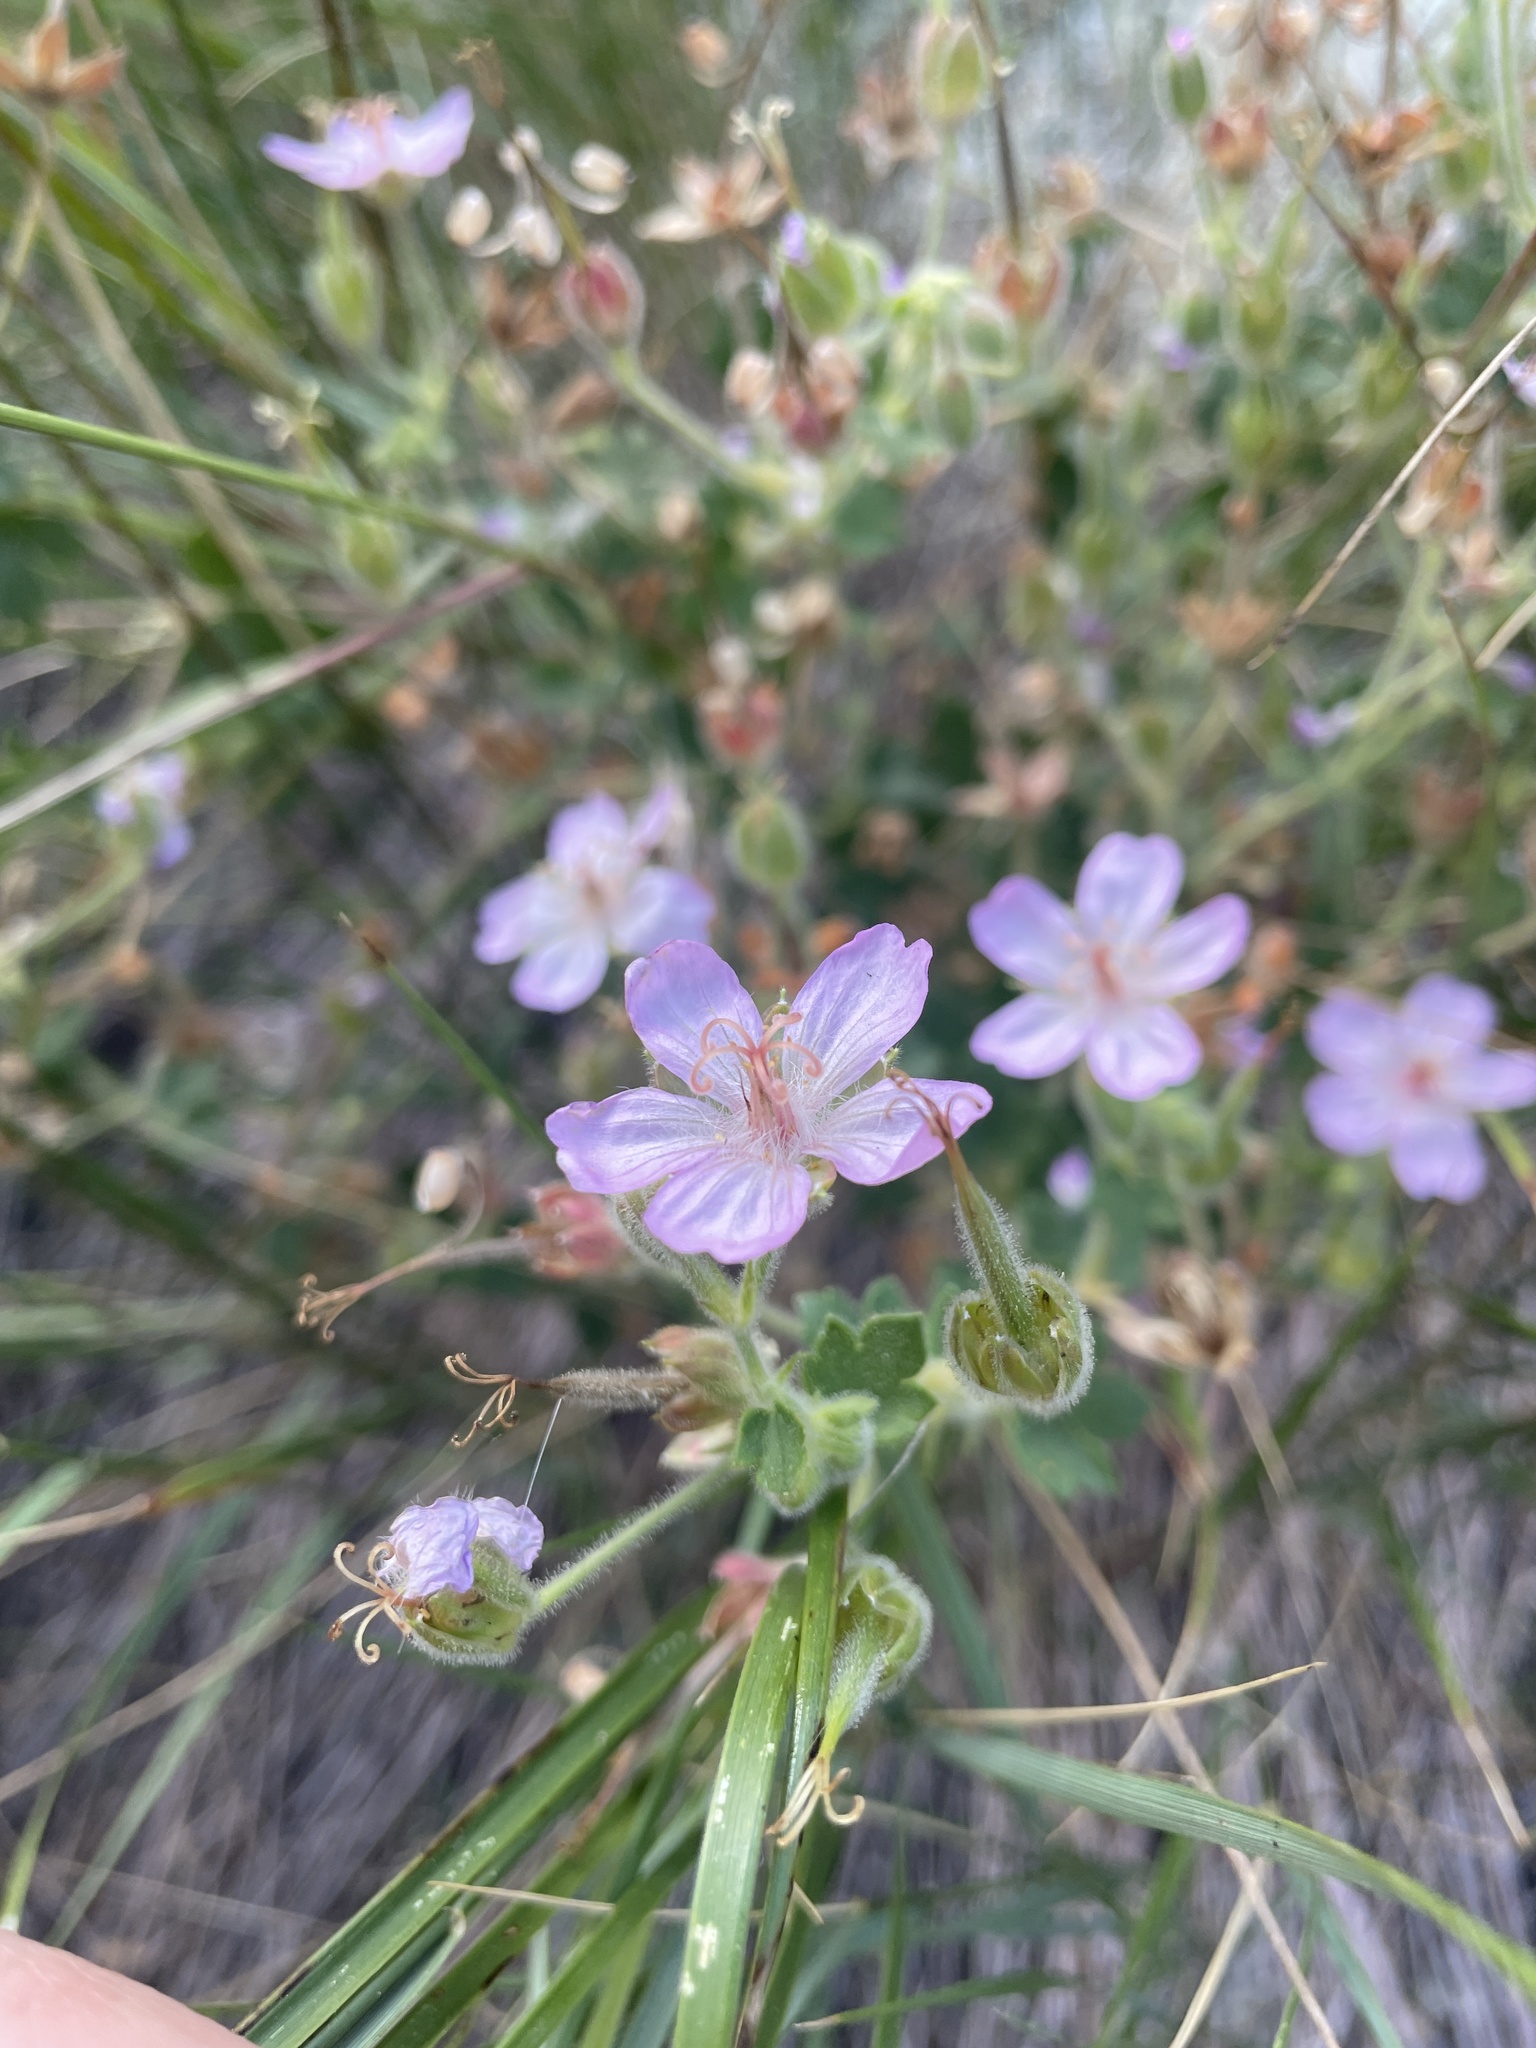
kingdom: Plantae
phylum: Tracheophyta
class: Magnoliopsida
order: Geraniales
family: Geraniaceae
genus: Geranium
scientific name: Geranium caespitosum
